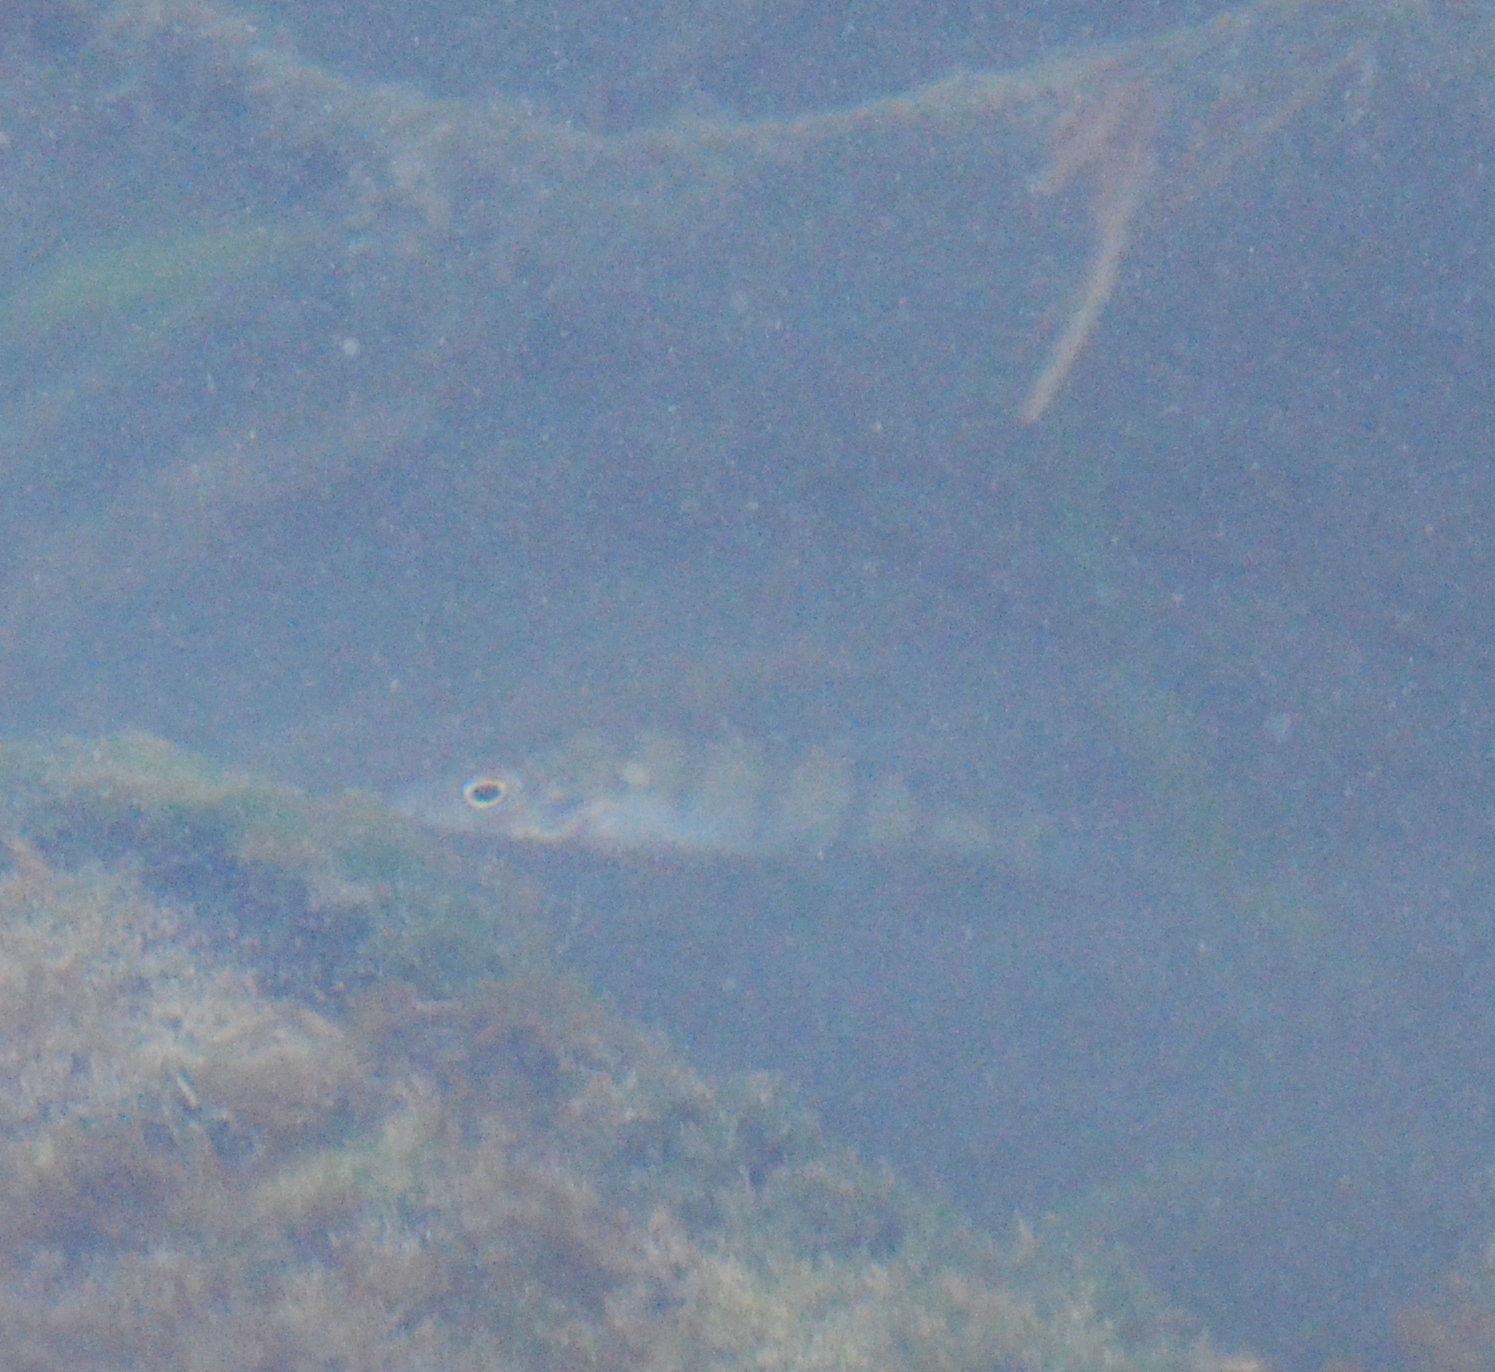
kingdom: Animalia
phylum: Chordata
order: Perciformes
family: Percidae
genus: Perca
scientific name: Perca fluviatilis
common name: Perch
